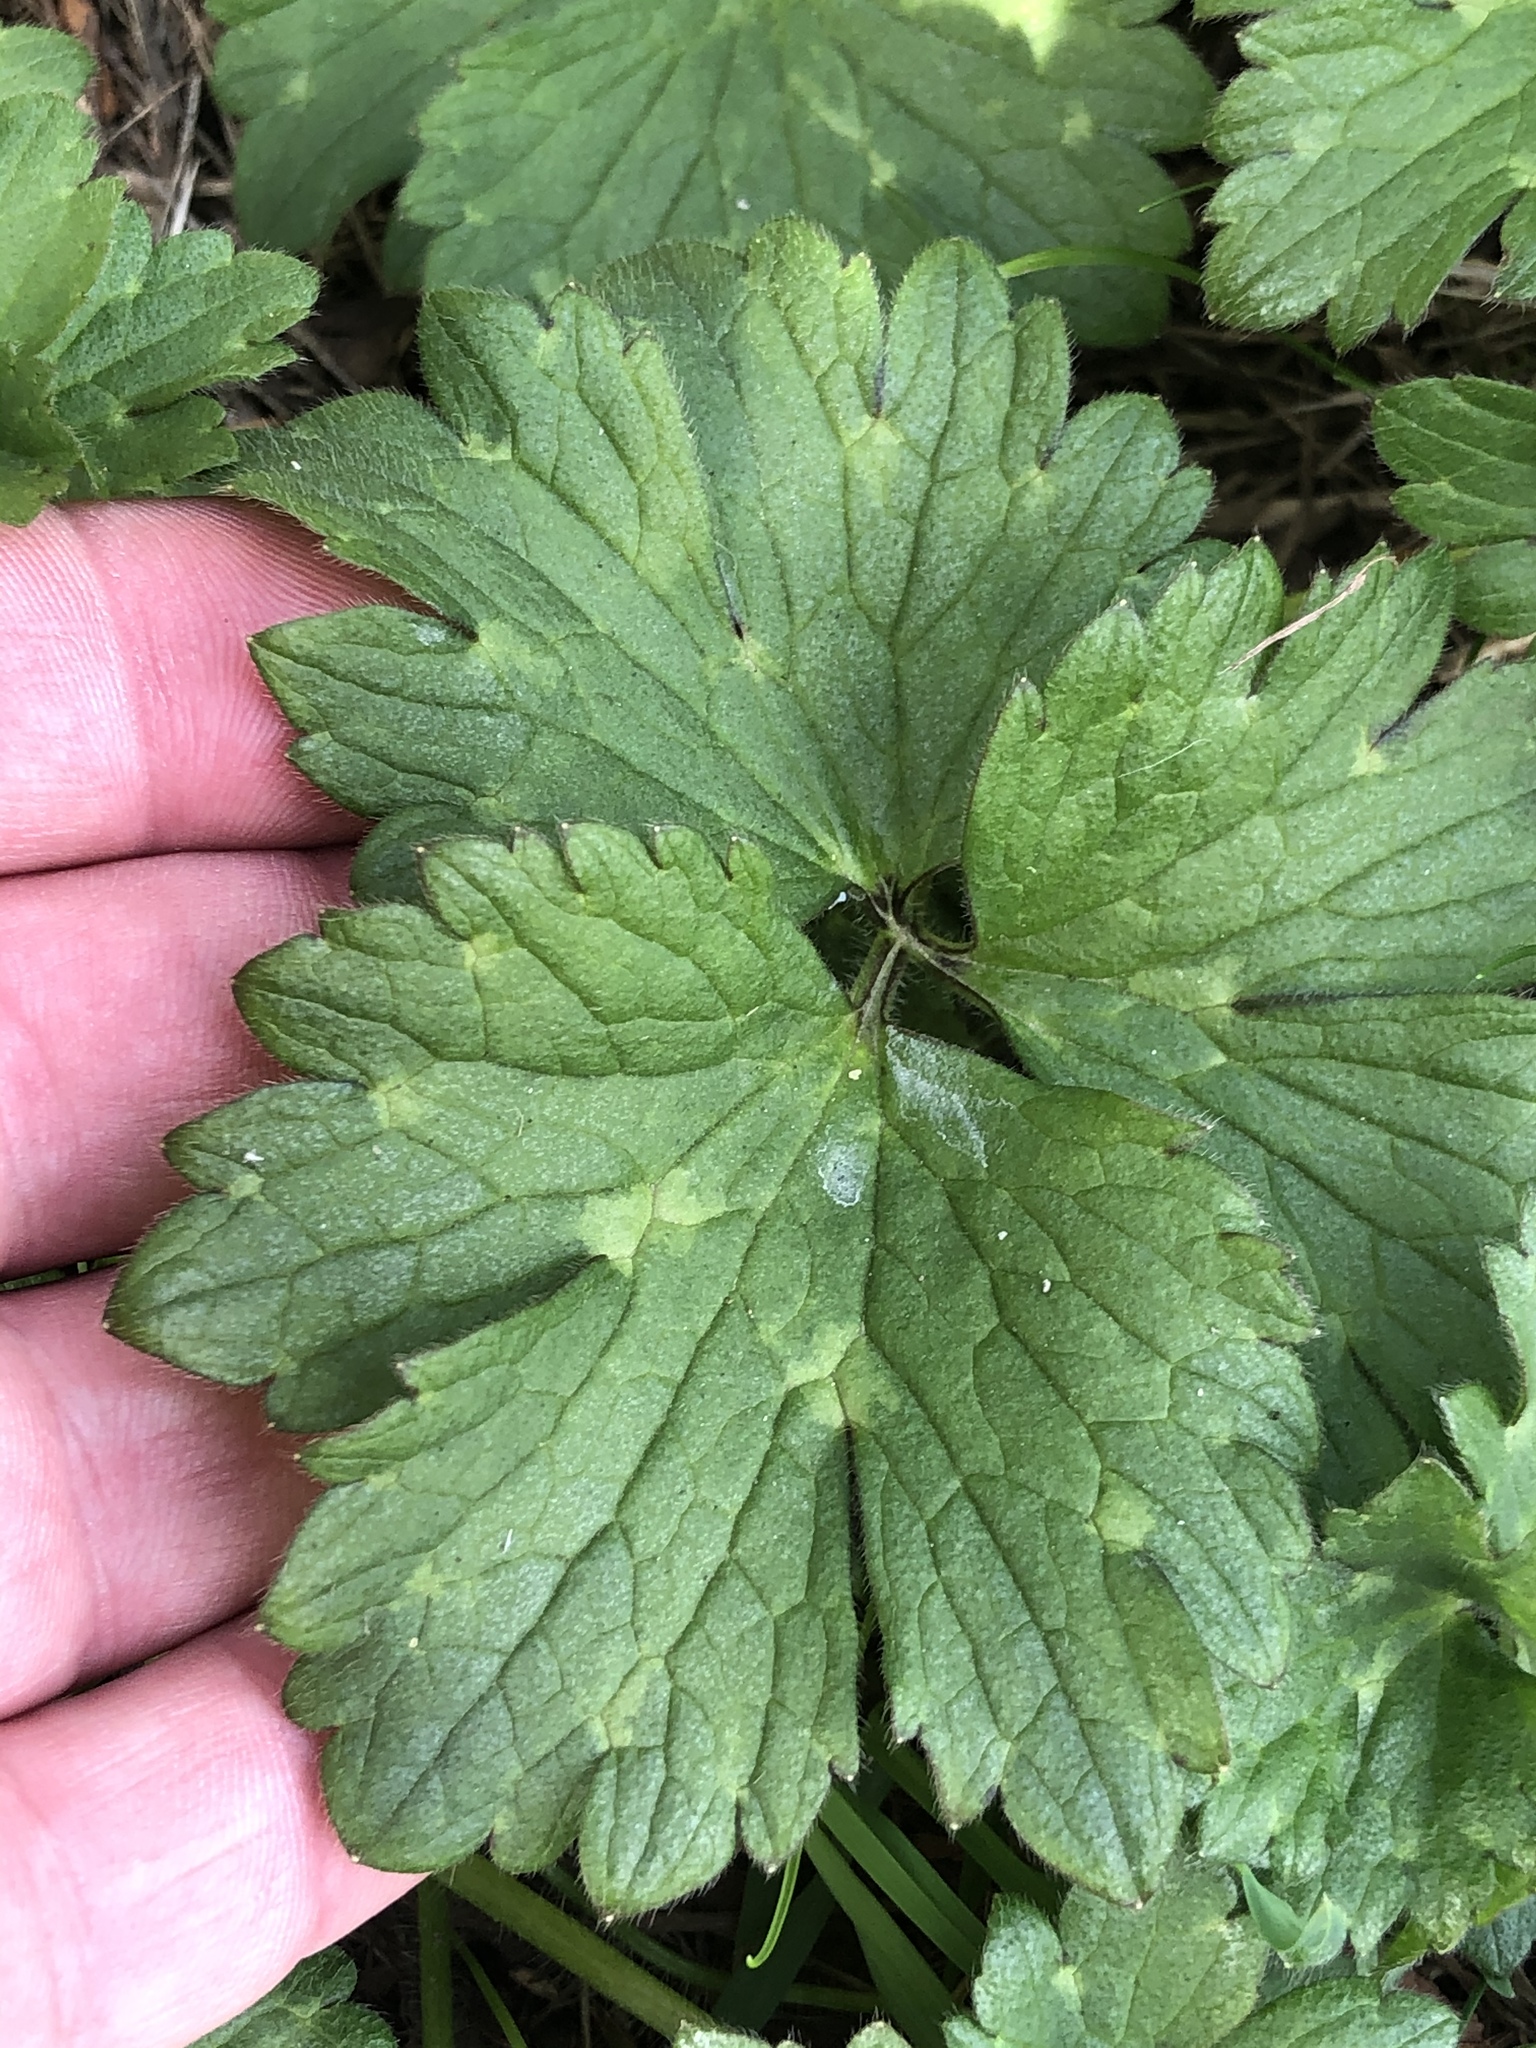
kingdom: Plantae
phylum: Tracheophyta
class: Magnoliopsida
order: Ranunculales
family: Ranunculaceae
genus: Ranunculus
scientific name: Ranunculus repens
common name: Creeping buttercup
